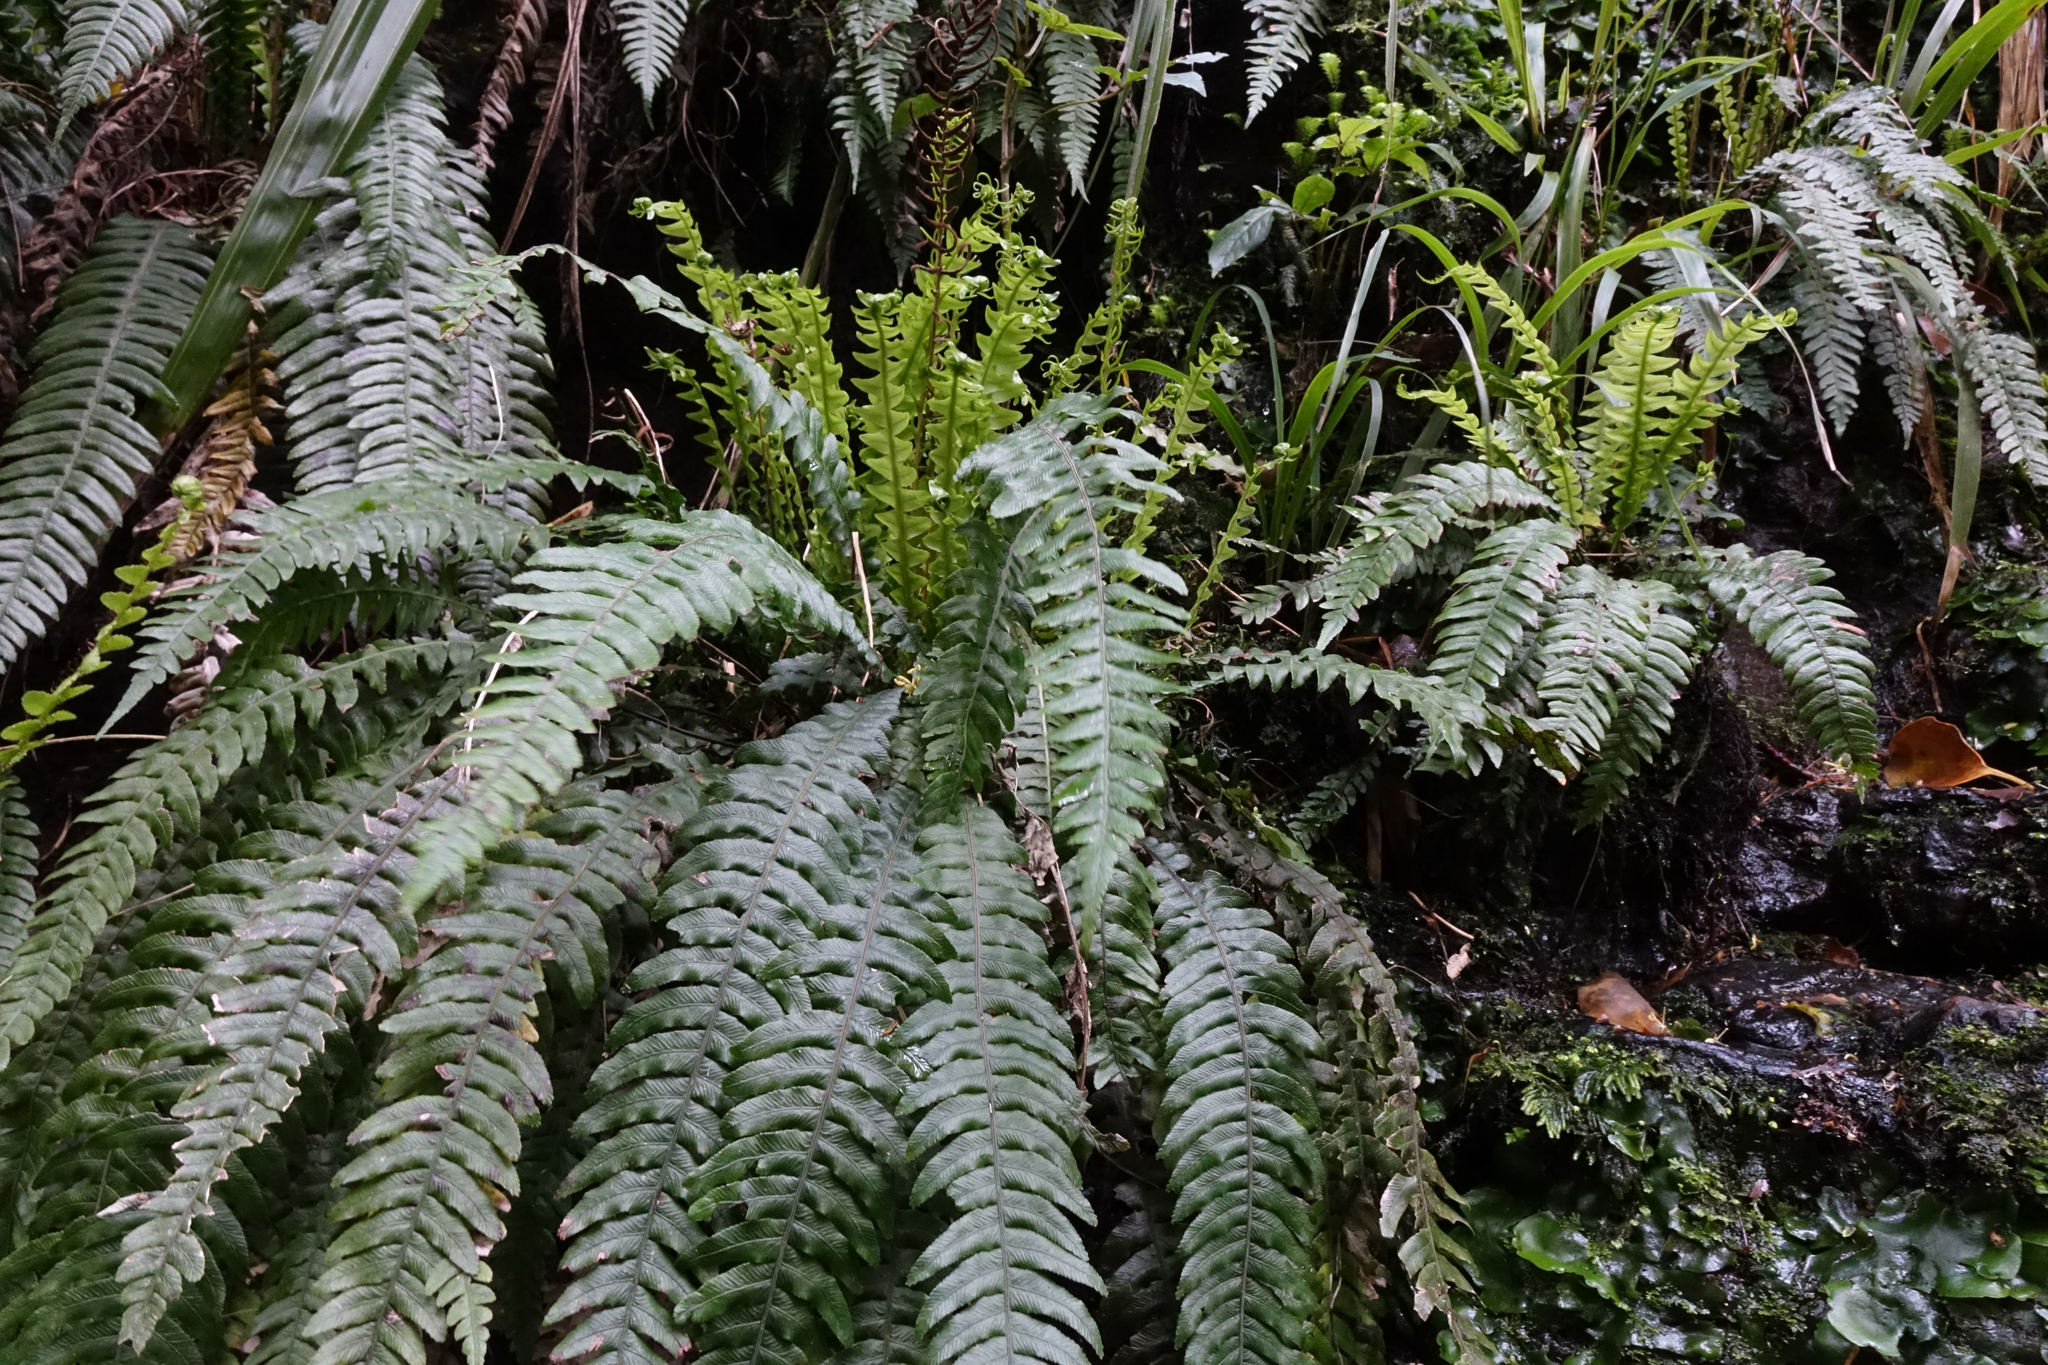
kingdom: Plantae
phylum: Tracheophyta
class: Polypodiopsida
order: Polypodiales
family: Blechnaceae
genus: Austroblechnum
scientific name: Austroblechnum lanceolatum
